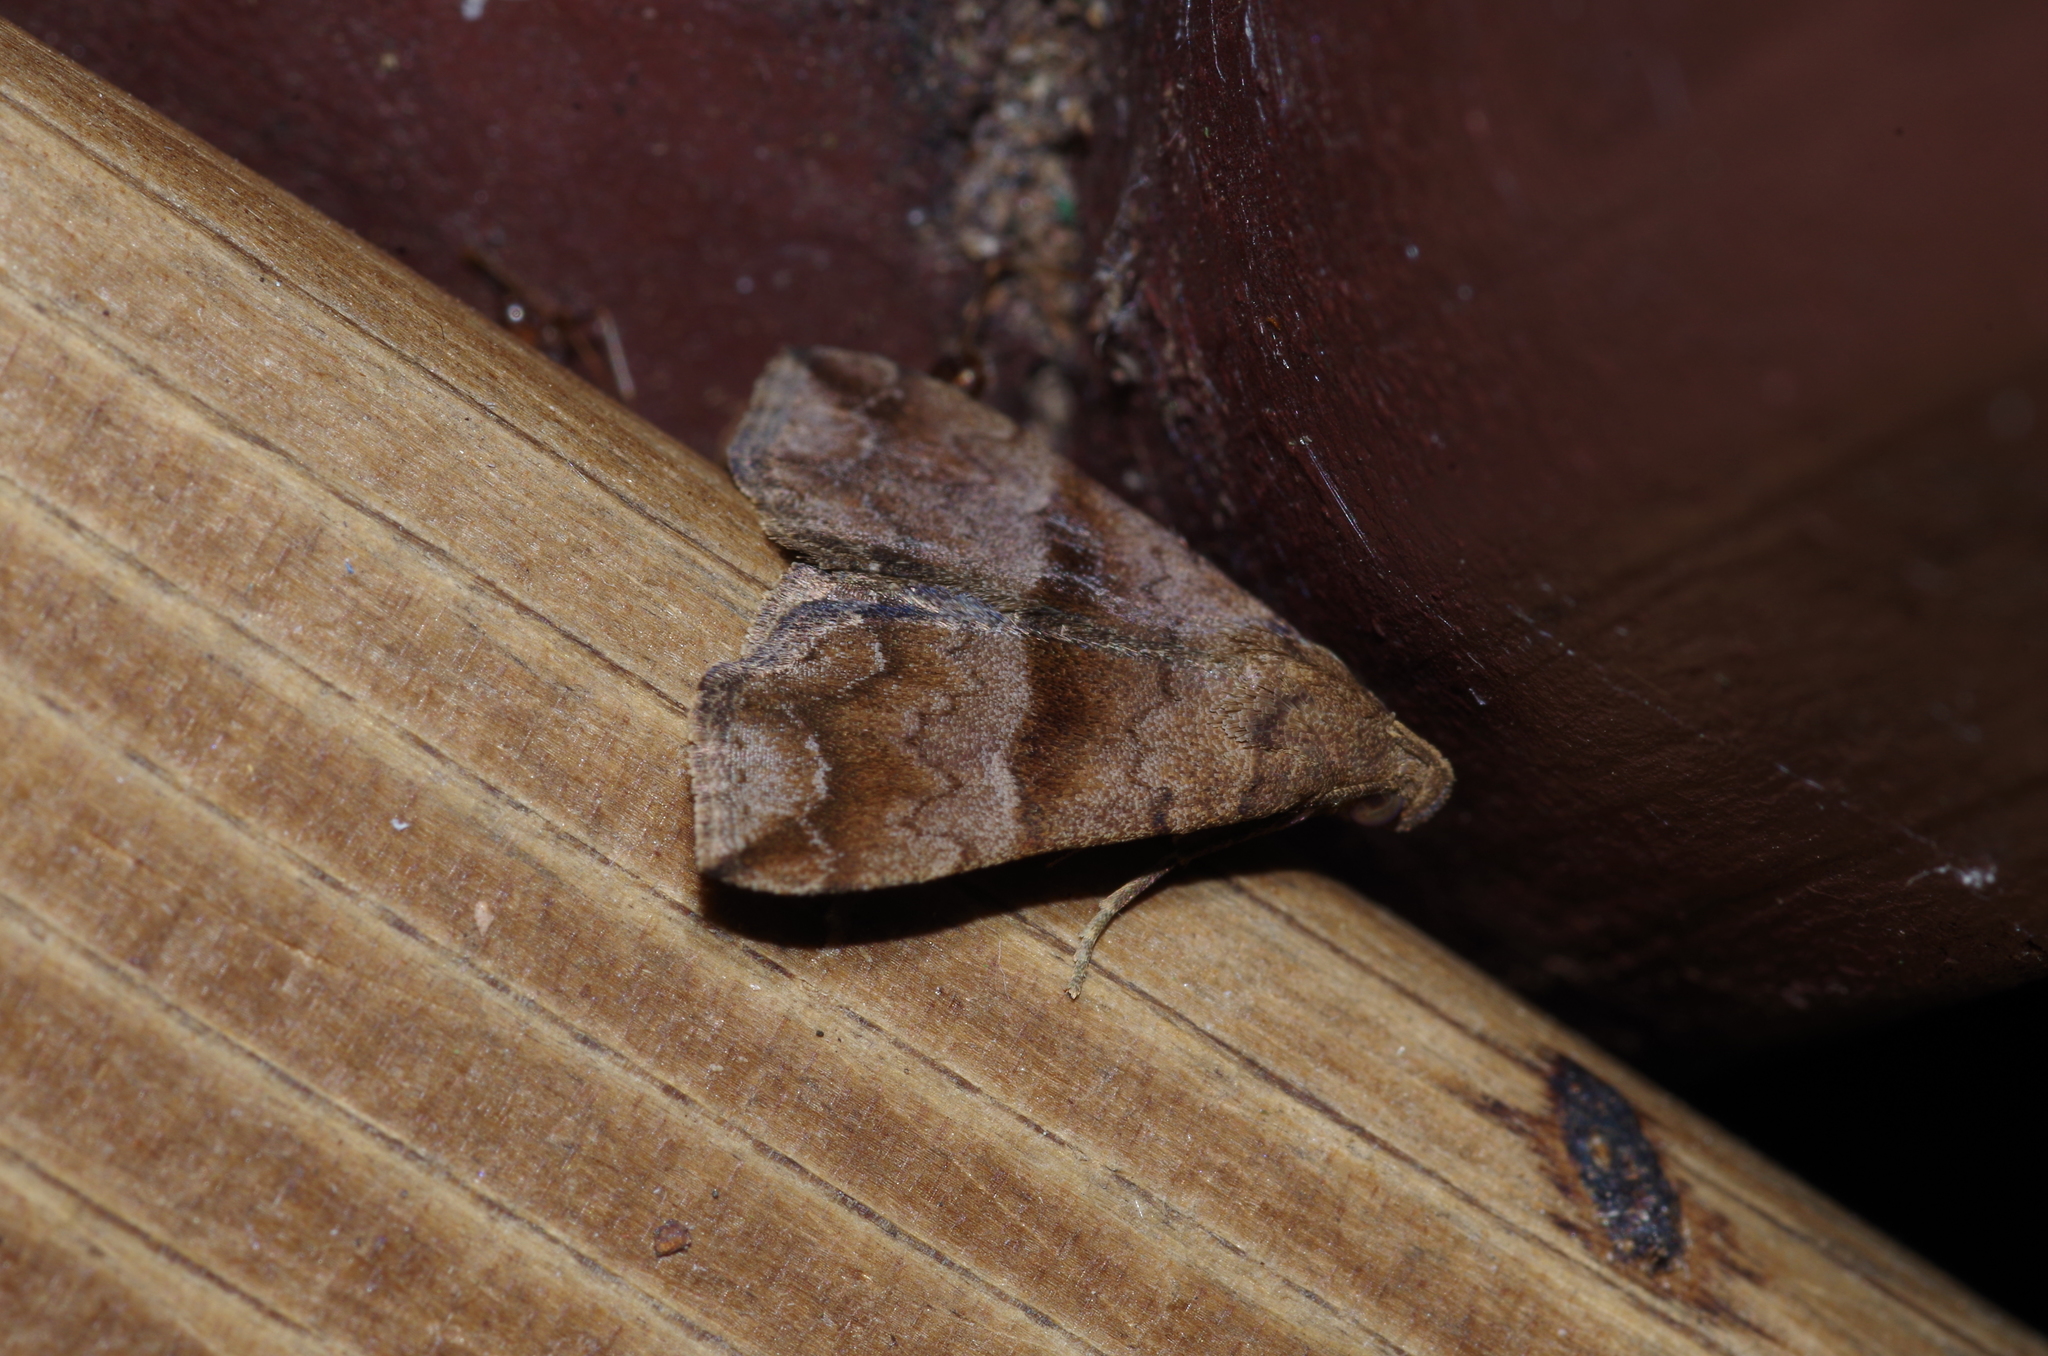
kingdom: Animalia
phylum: Arthropoda
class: Insecta
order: Lepidoptera
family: Erebidae
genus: Polypogon
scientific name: Polypogon Hipoepa fractalis
